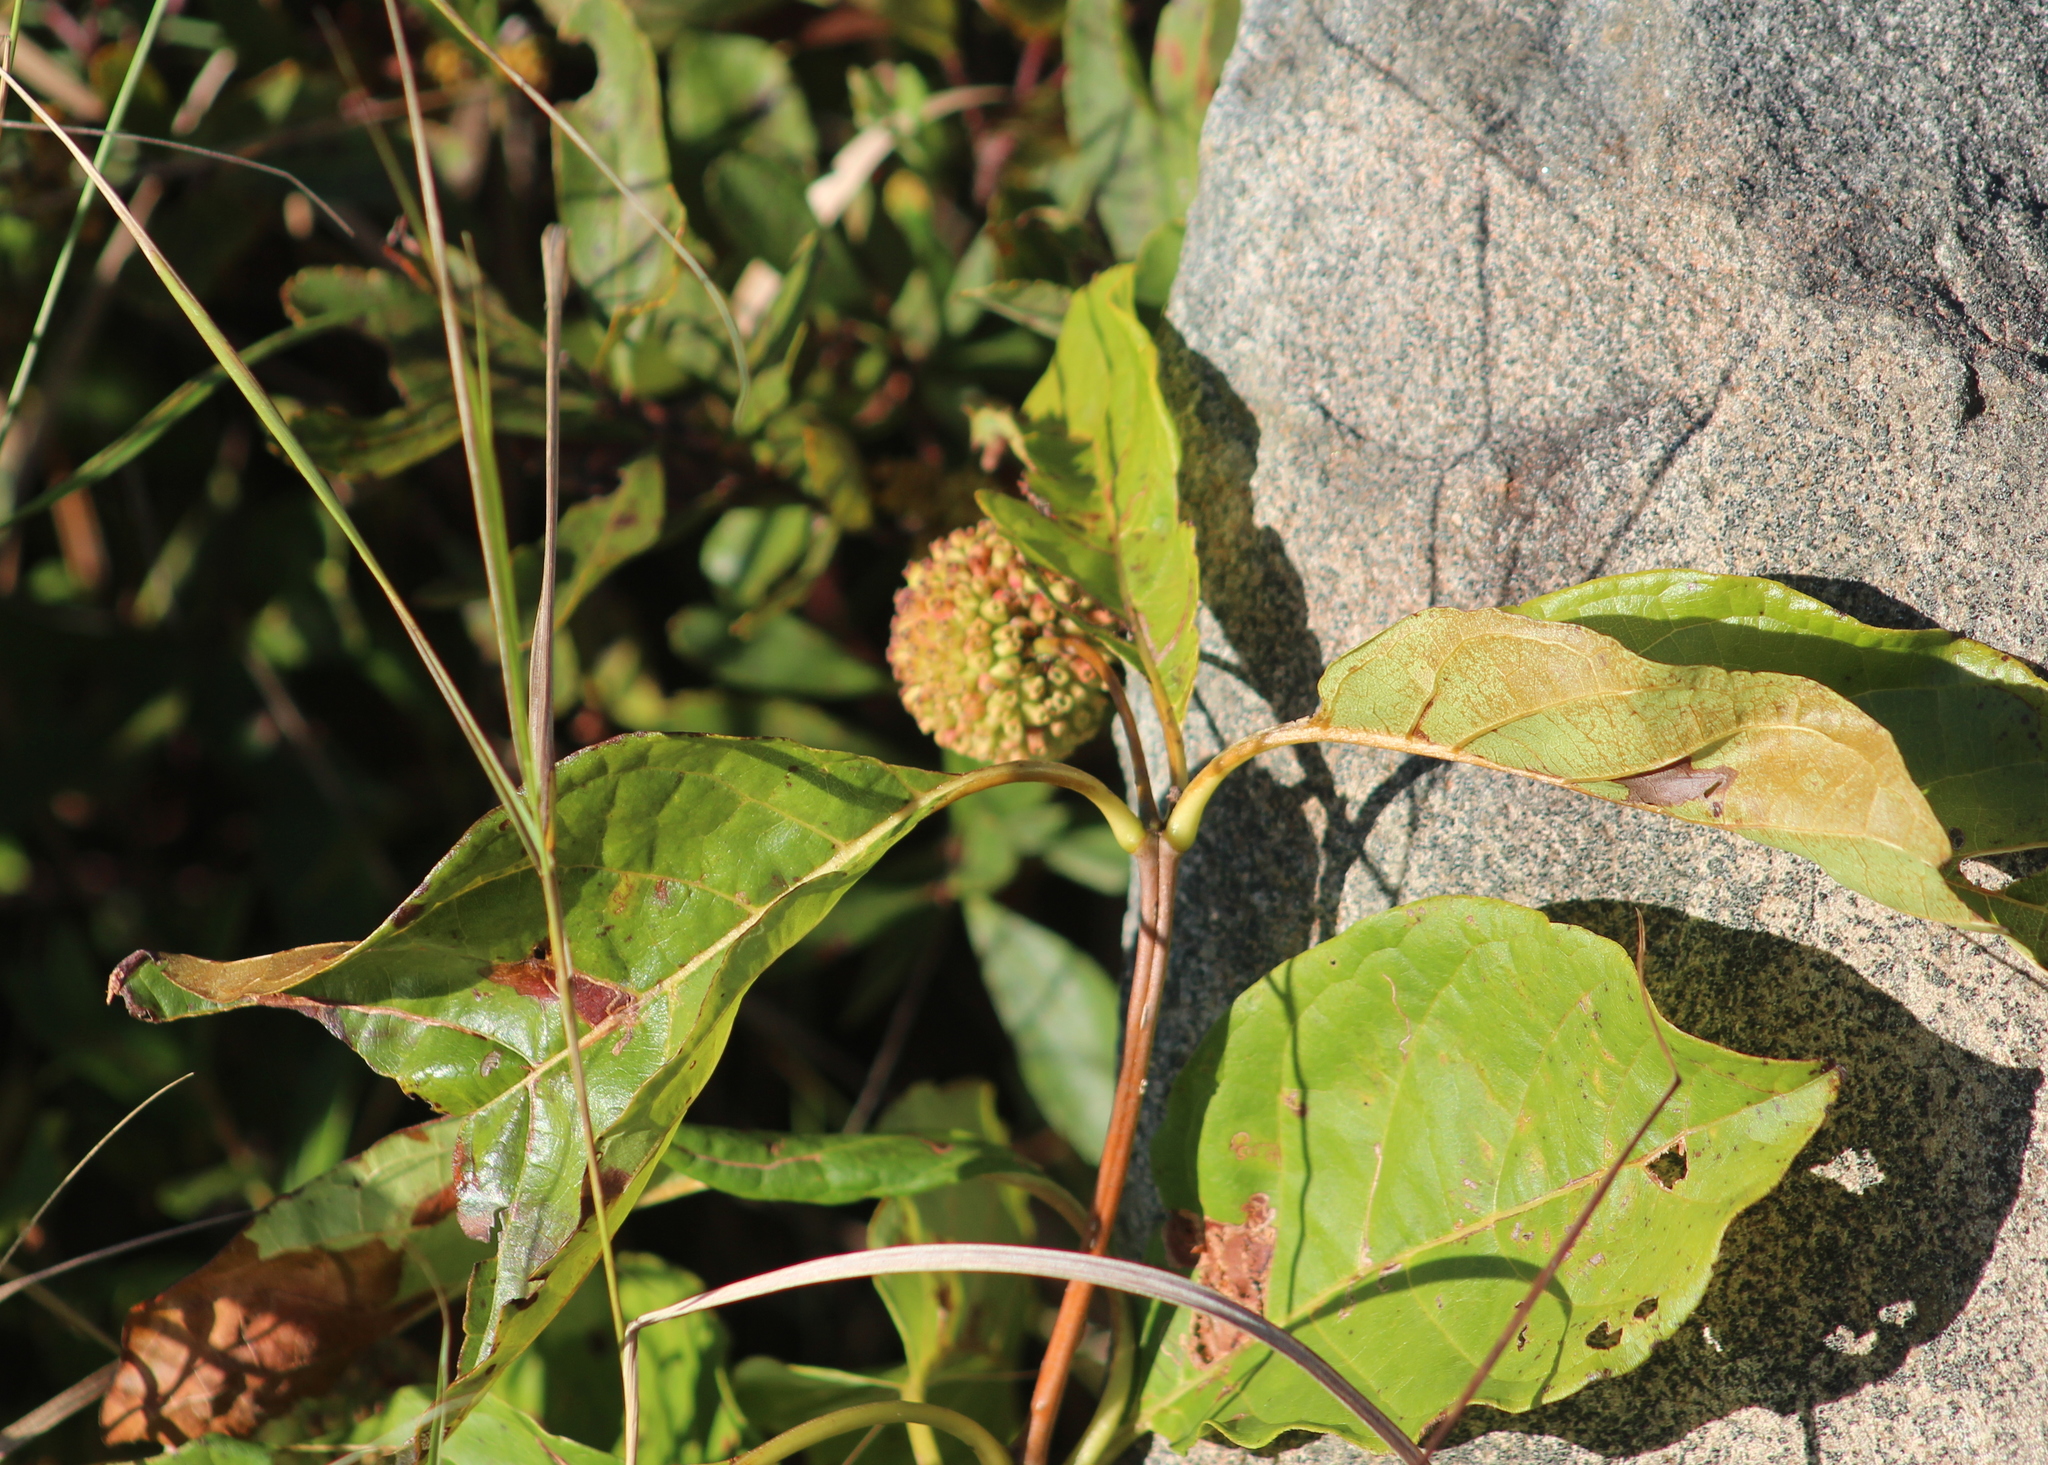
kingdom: Plantae
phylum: Tracheophyta
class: Magnoliopsida
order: Gentianales
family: Rubiaceae
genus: Cephalanthus
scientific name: Cephalanthus occidentalis
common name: Button-willow
